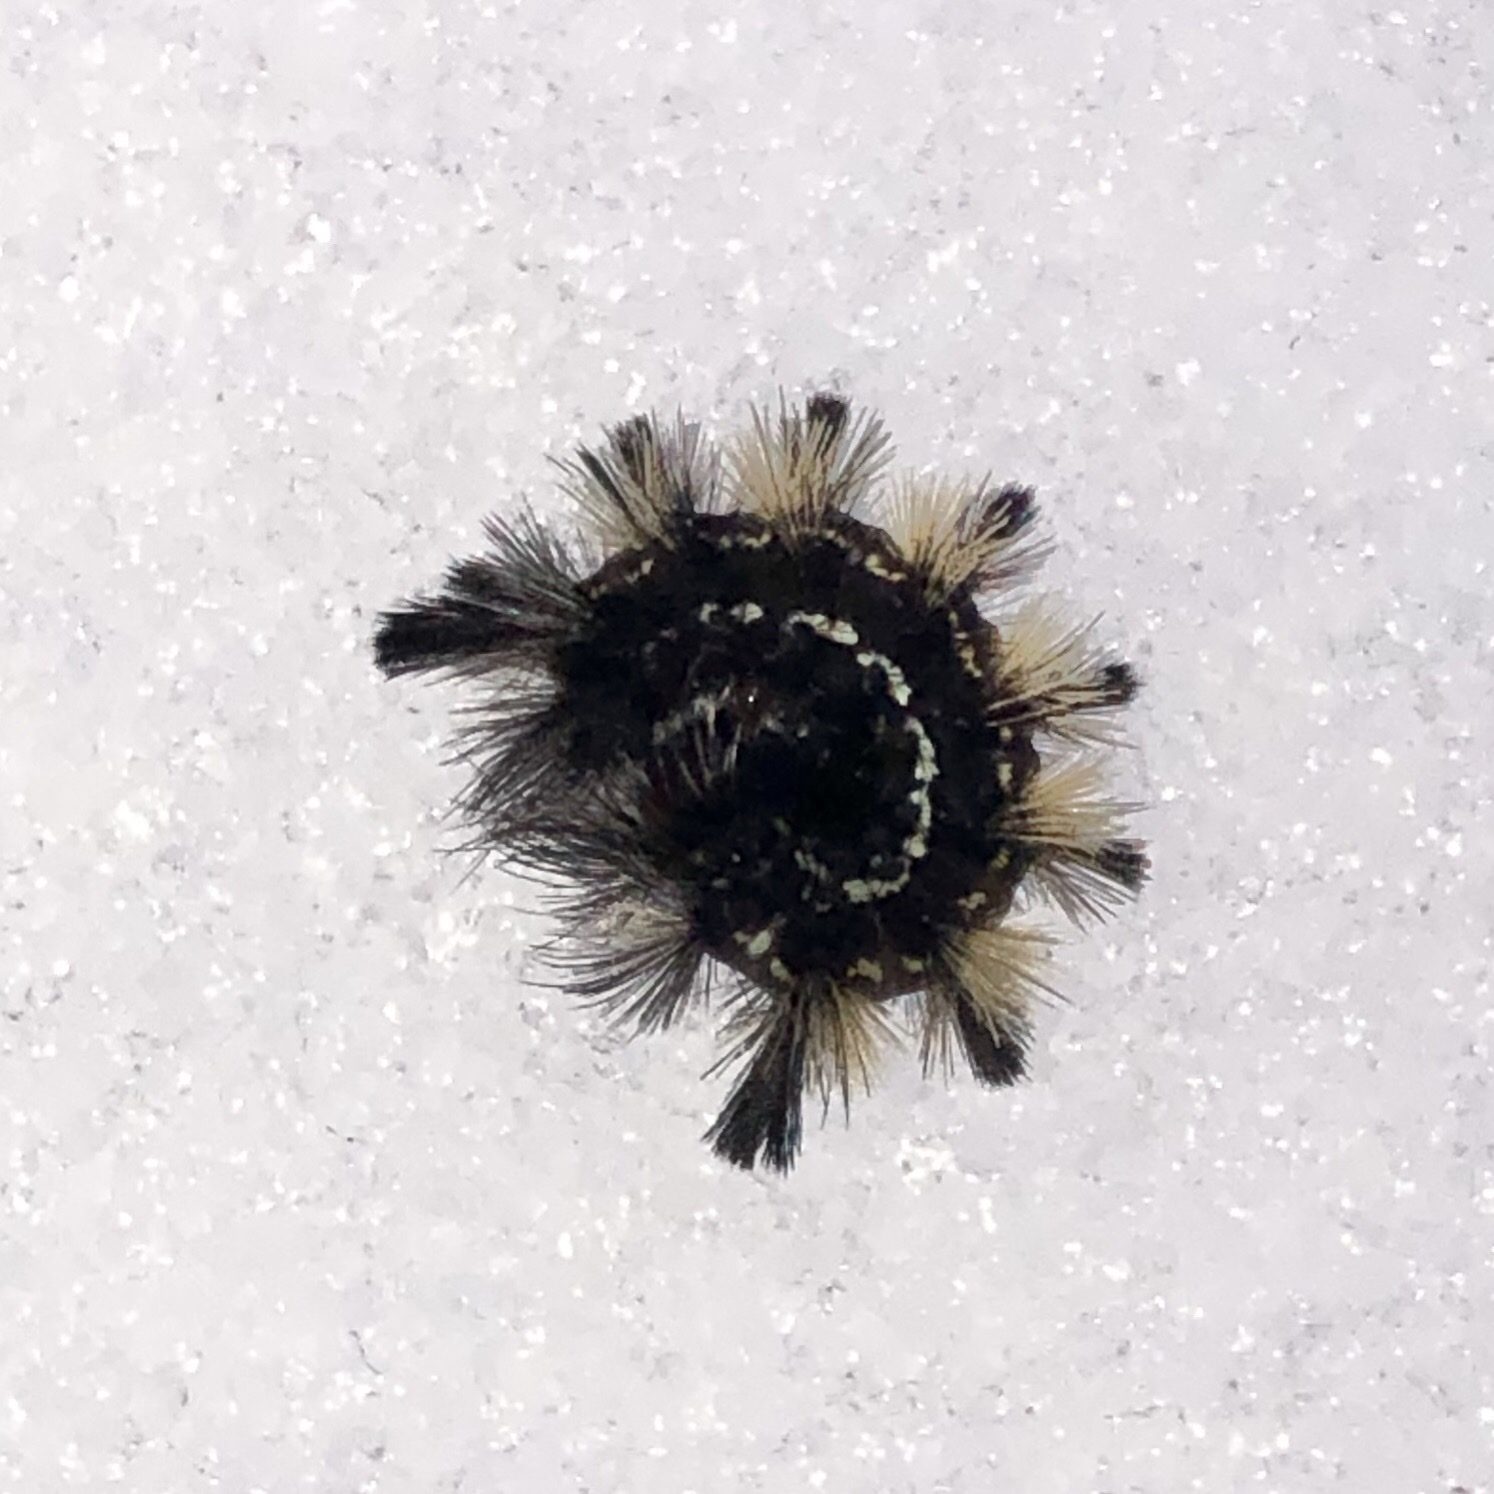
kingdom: Animalia
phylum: Arthropoda
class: Insecta
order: Lepidoptera
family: Erebidae
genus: Ctenucha
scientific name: Ctenucha virginica
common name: Virginia ctenucha moth
